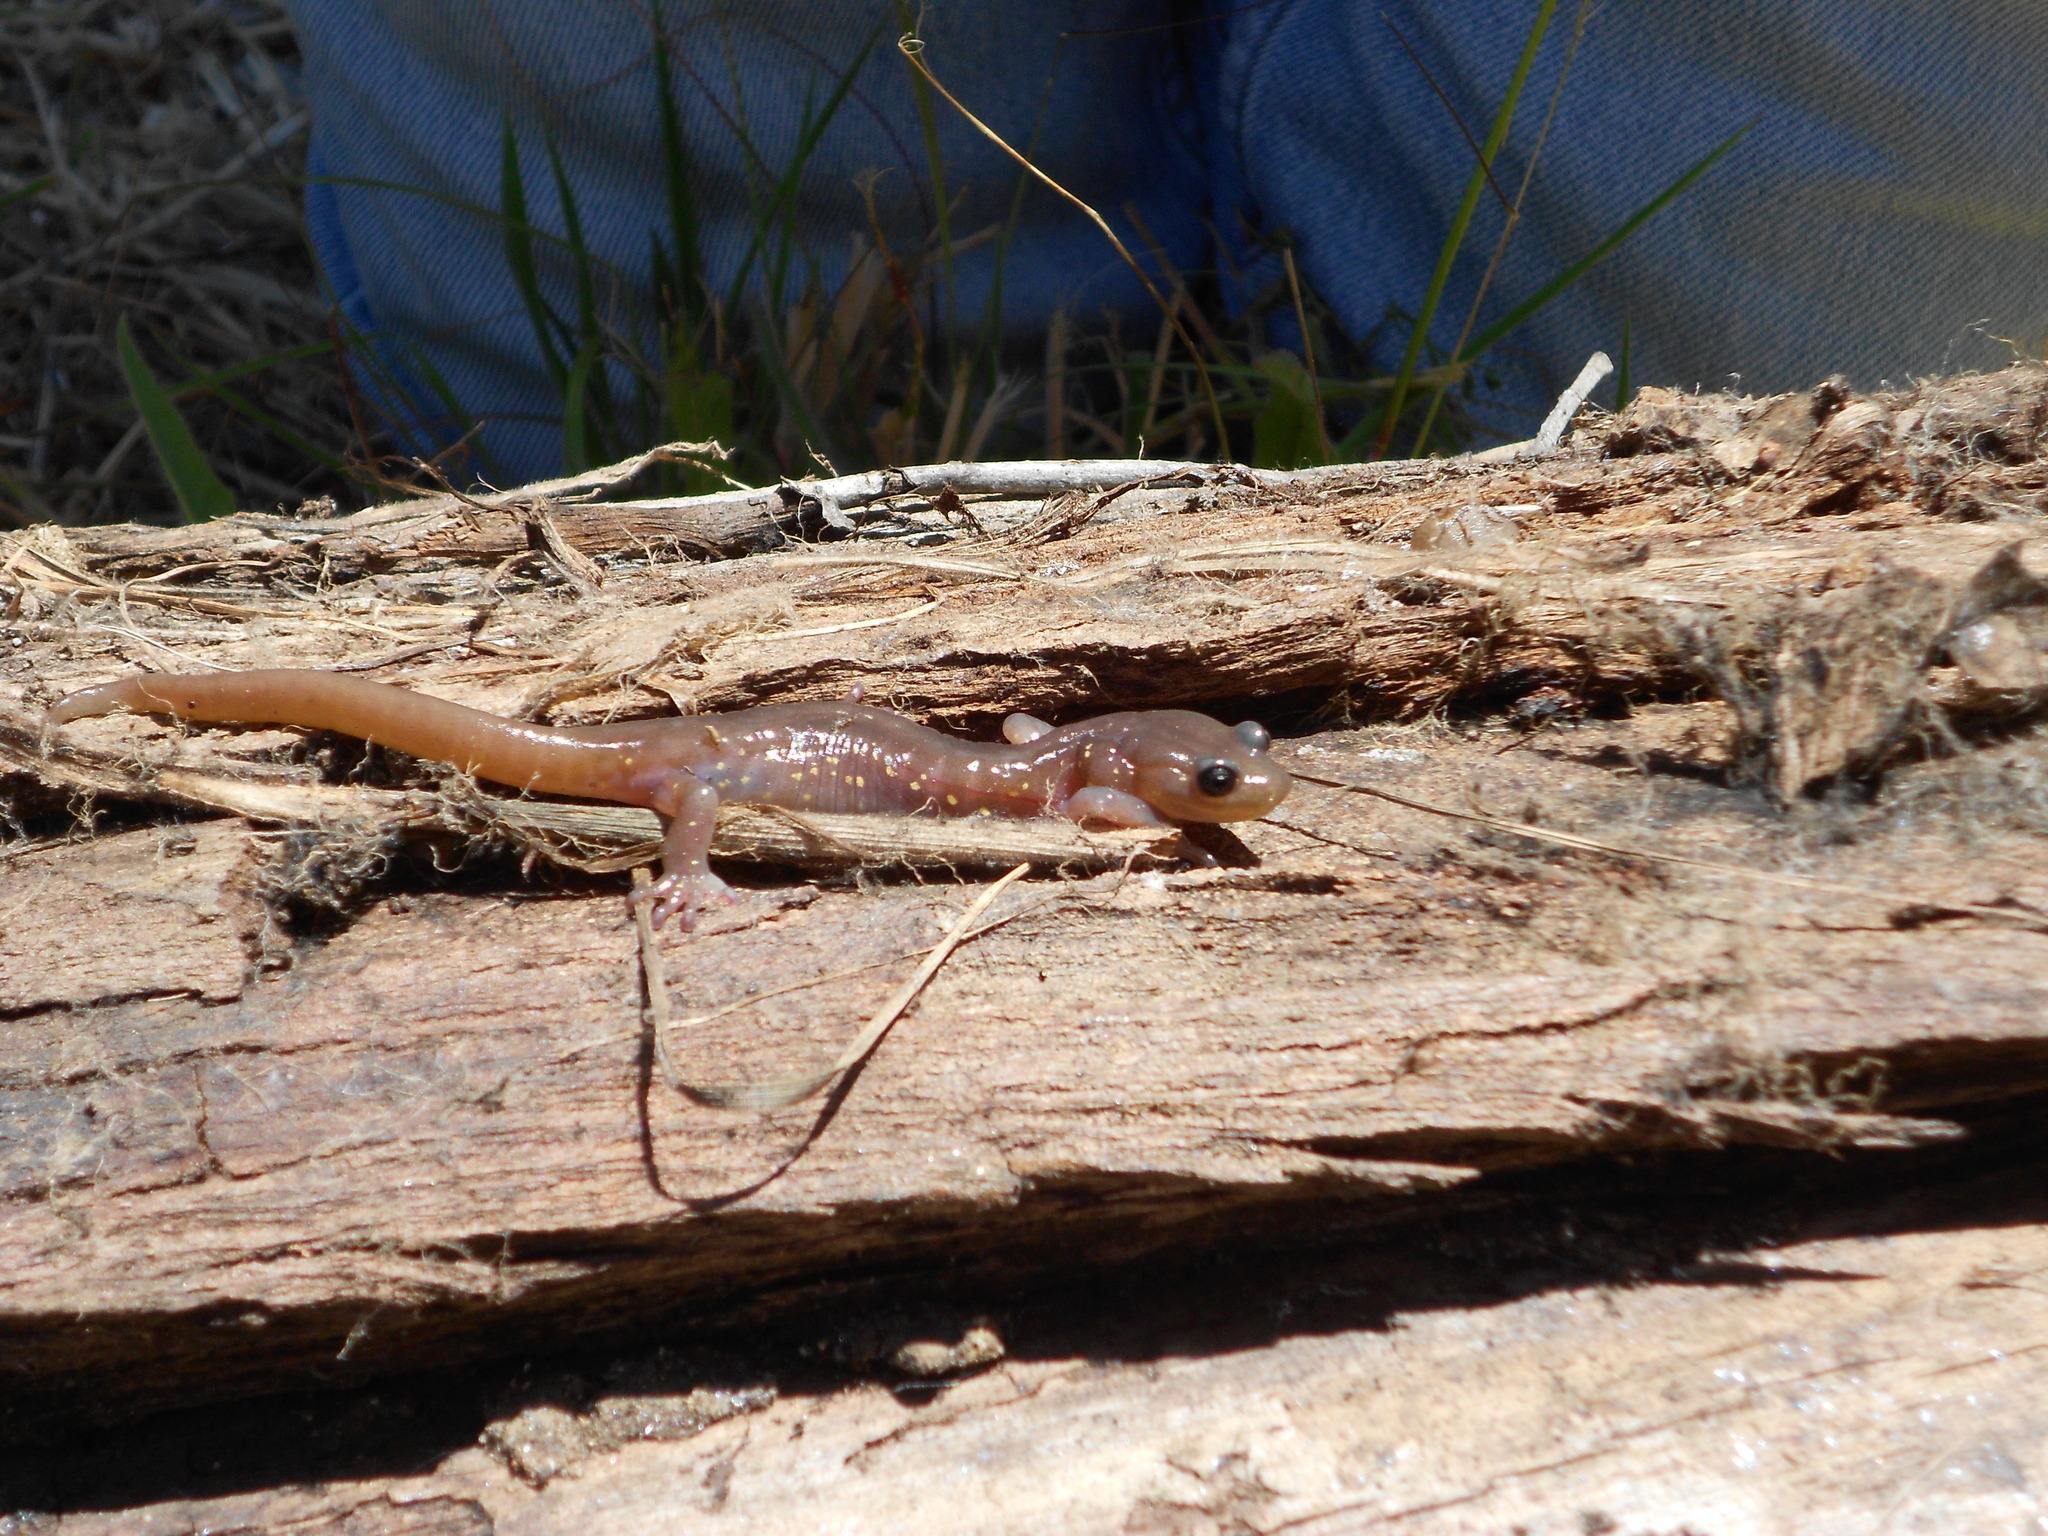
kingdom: Animalia
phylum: Chordata
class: Amphibia
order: Caudata
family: Plethodontidae
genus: Aneides
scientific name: Aneides lugubris
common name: Arboreal salamander
